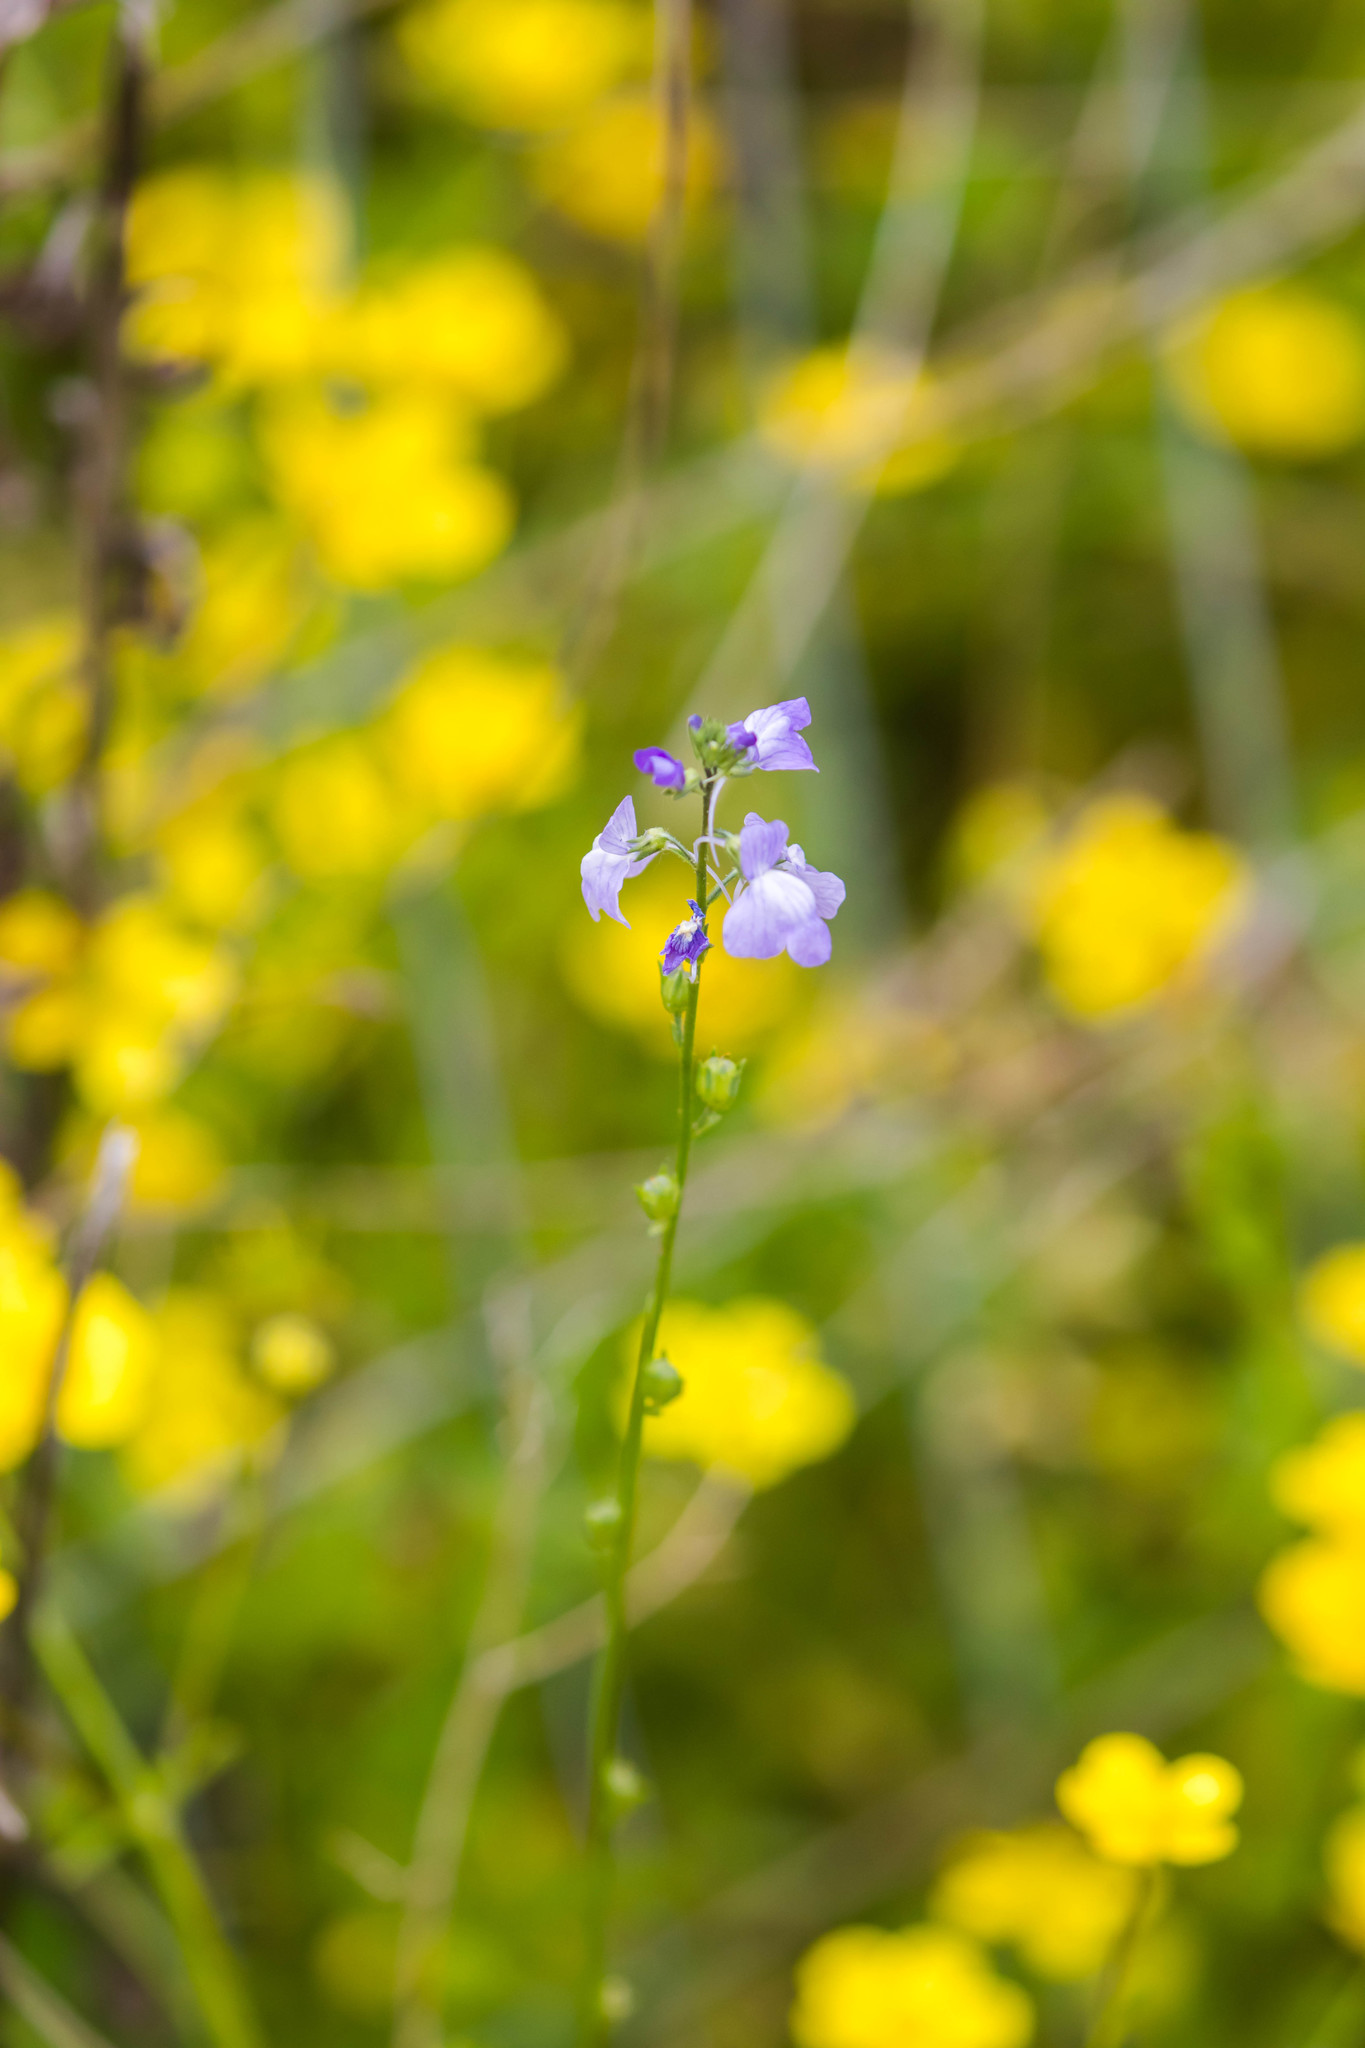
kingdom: Plantae
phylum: Tracheophyta
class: Magnoliopsida
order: Lamiales
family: Plantaginaceae
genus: Nuttallanthus
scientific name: Nuttallanthus texanus
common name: Texas toadflax
